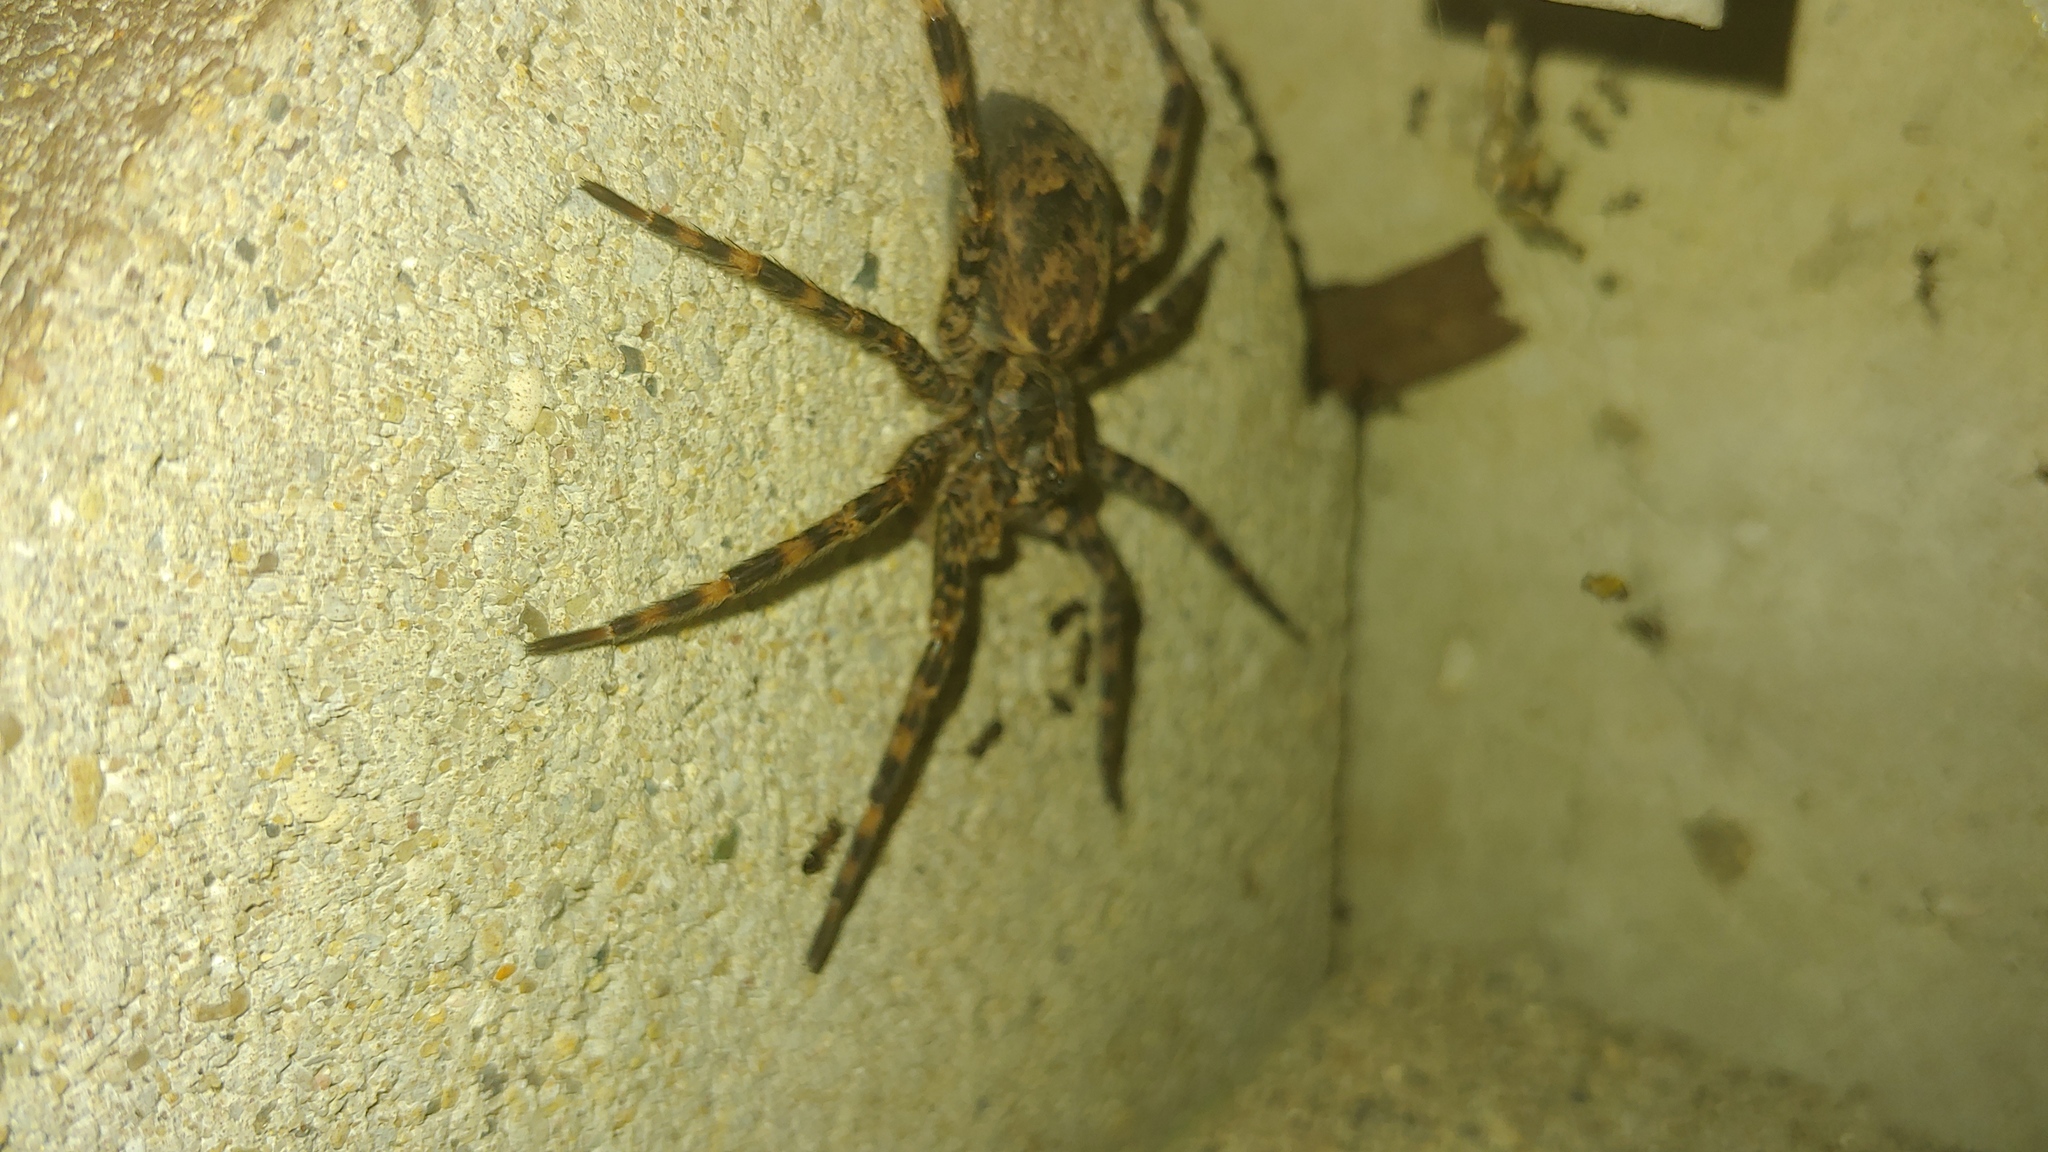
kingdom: Animalia
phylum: Arthropoda
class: Arachnida
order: Araneae
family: Pisauridae
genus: Dolomedes
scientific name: Dolomedes tenebrosus
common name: Dark fishing spider
